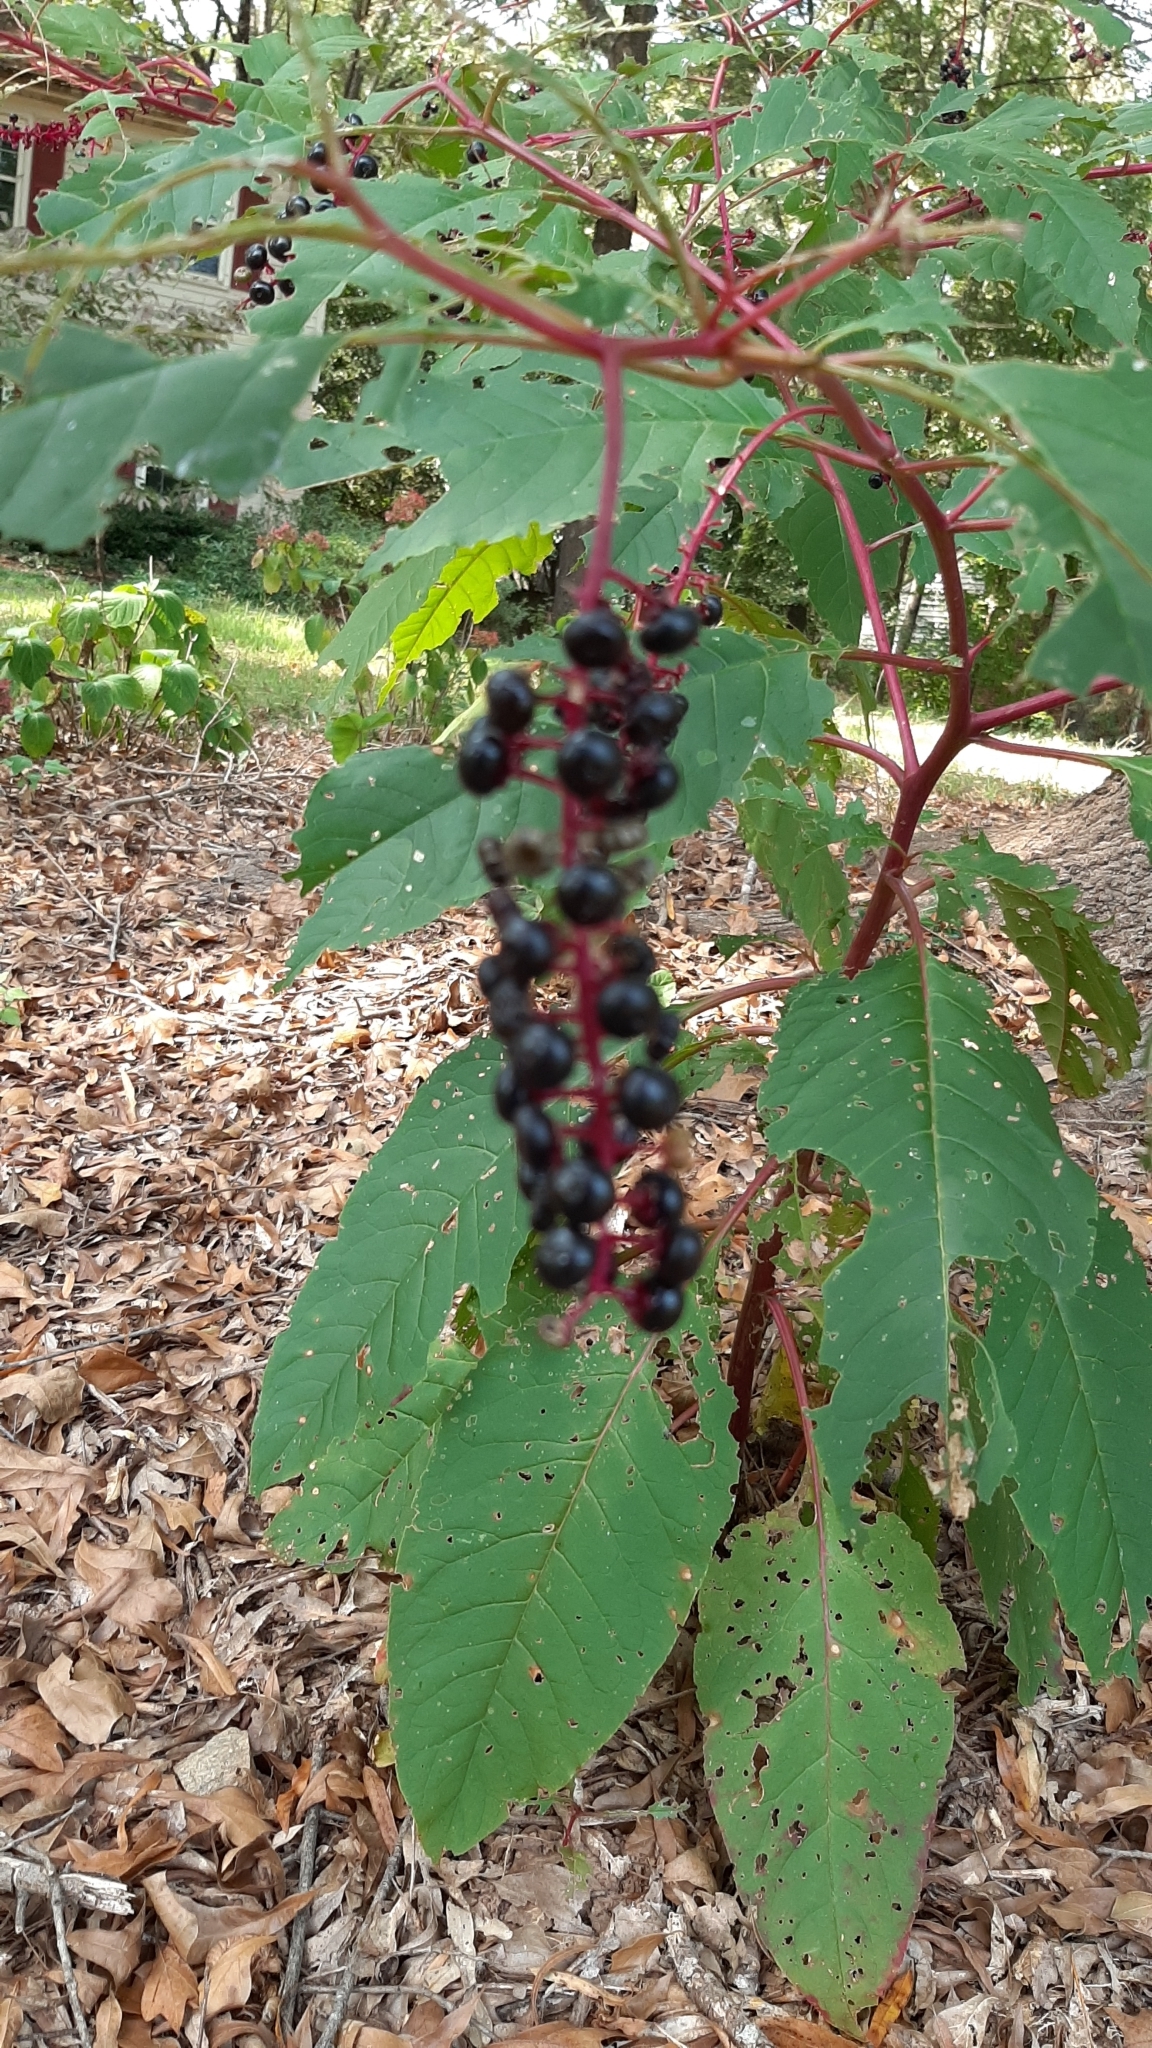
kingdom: Plantae
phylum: Tracheophyta
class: Magnoliopsida
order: Caryophyllales
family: Phytolaccaceae
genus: Phytolacca
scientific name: Phytolacca americana
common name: American pokeweed
